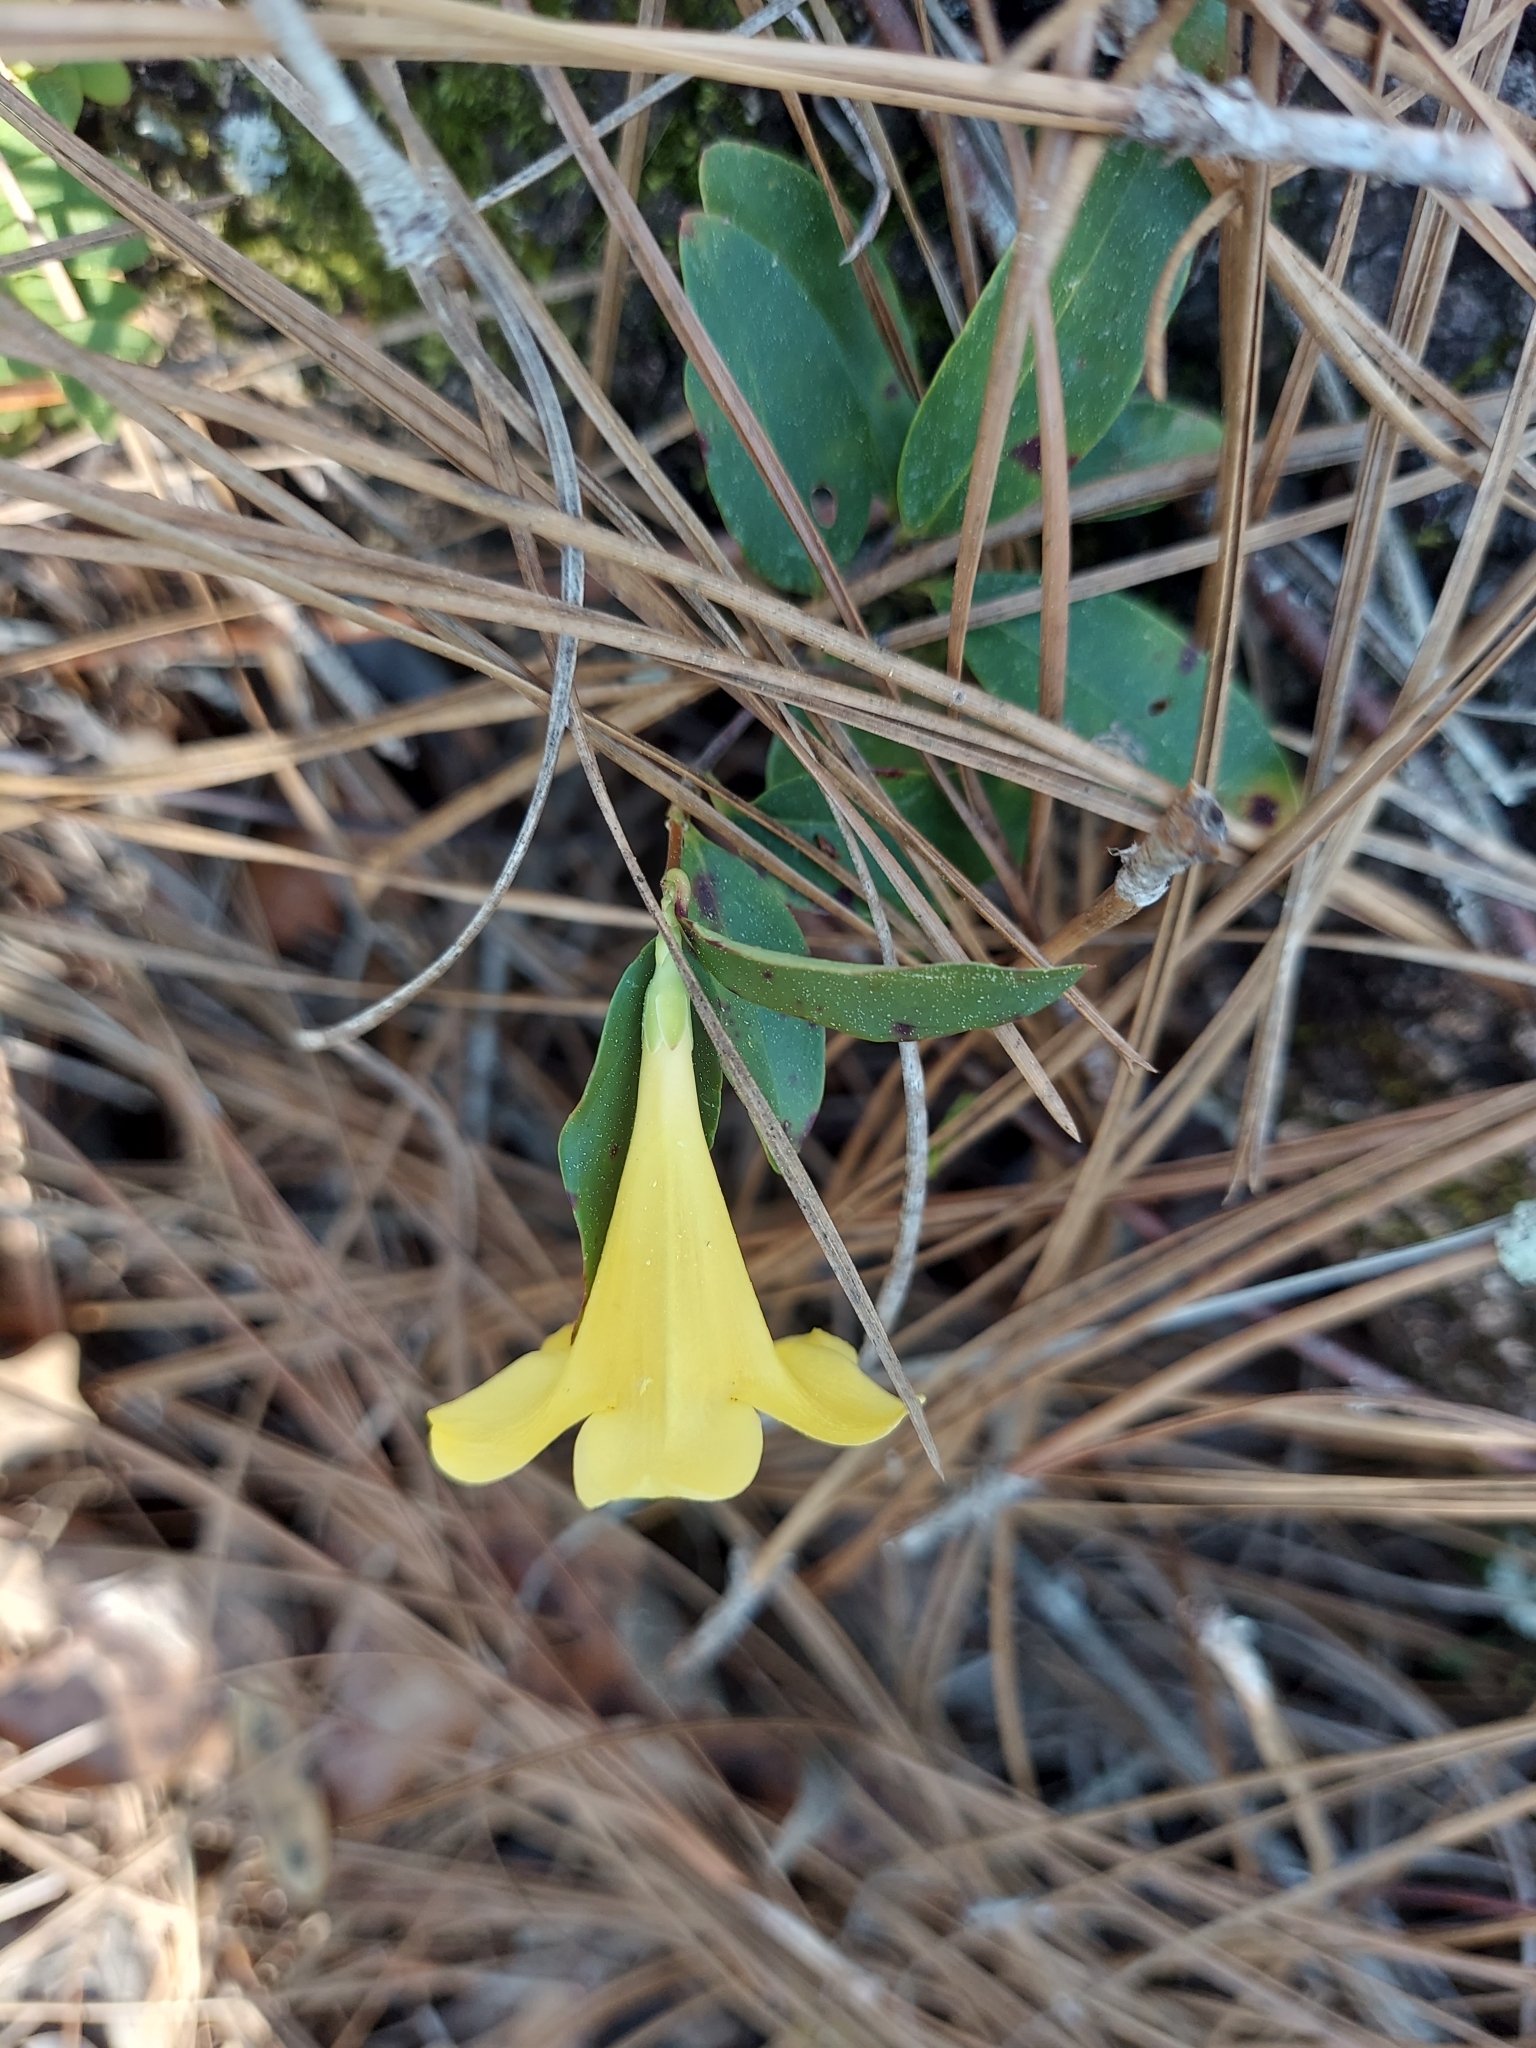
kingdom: Plantae
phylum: Tracheophyta
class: Magnoliopsida
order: Gentianales
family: Gelsemiaceae
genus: Gelsemium
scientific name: Gelsemium sempervirens
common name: Carolina-jasmine
